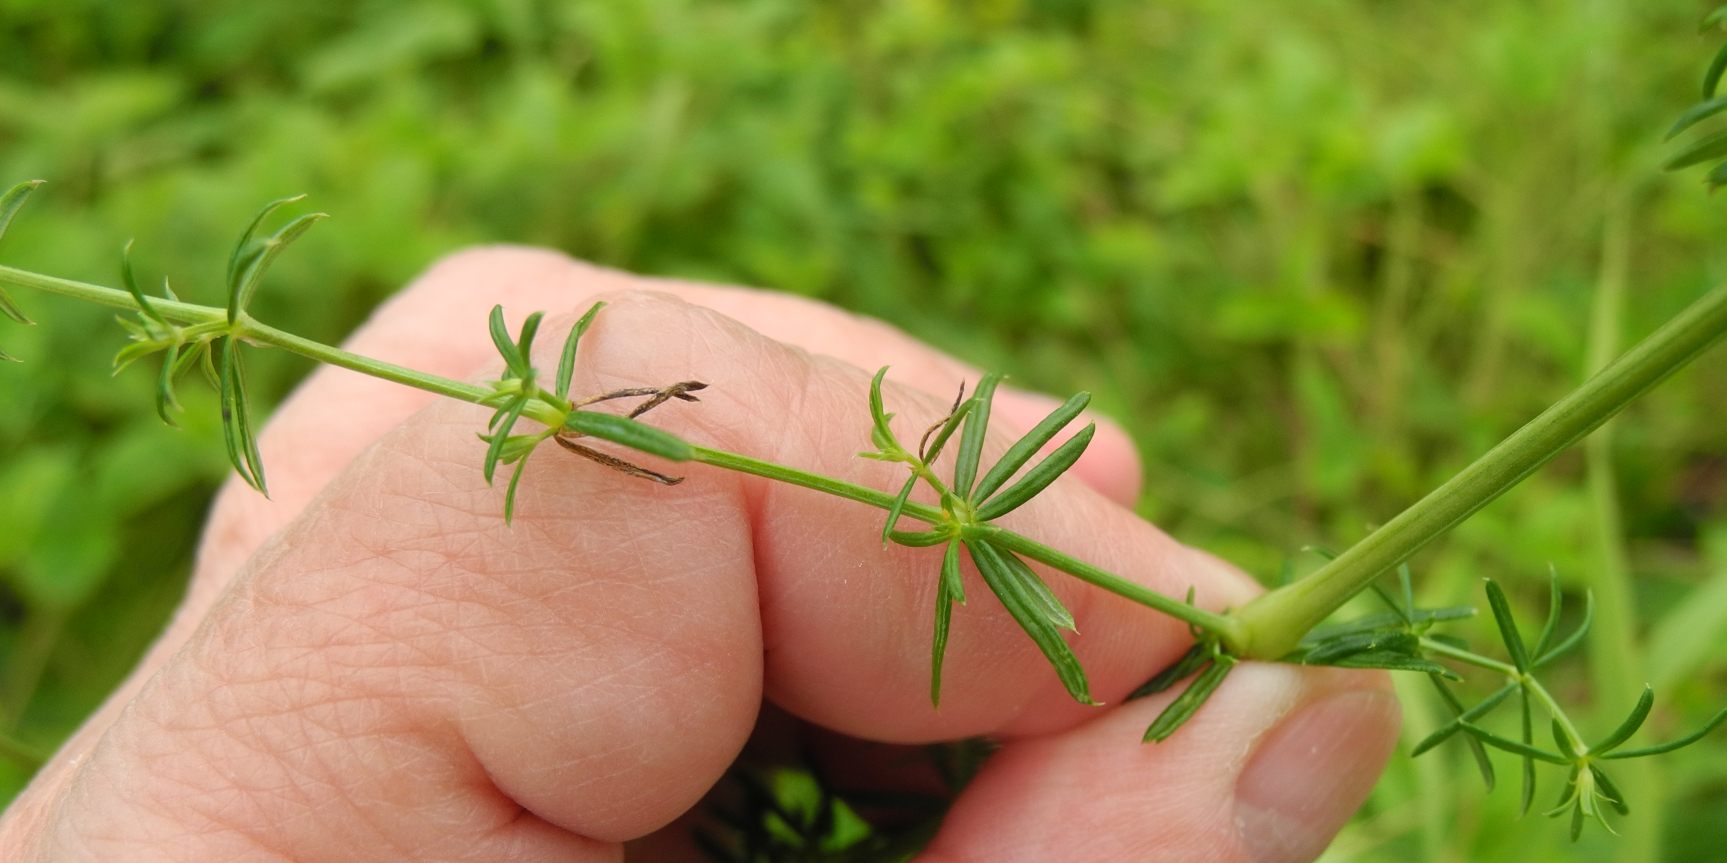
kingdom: Plantae
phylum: Tracheophyta
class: Magnoliopsida
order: Gentianales
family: Rubiaceae
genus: Galium
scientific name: Galium verum
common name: Lady's bedstraw
